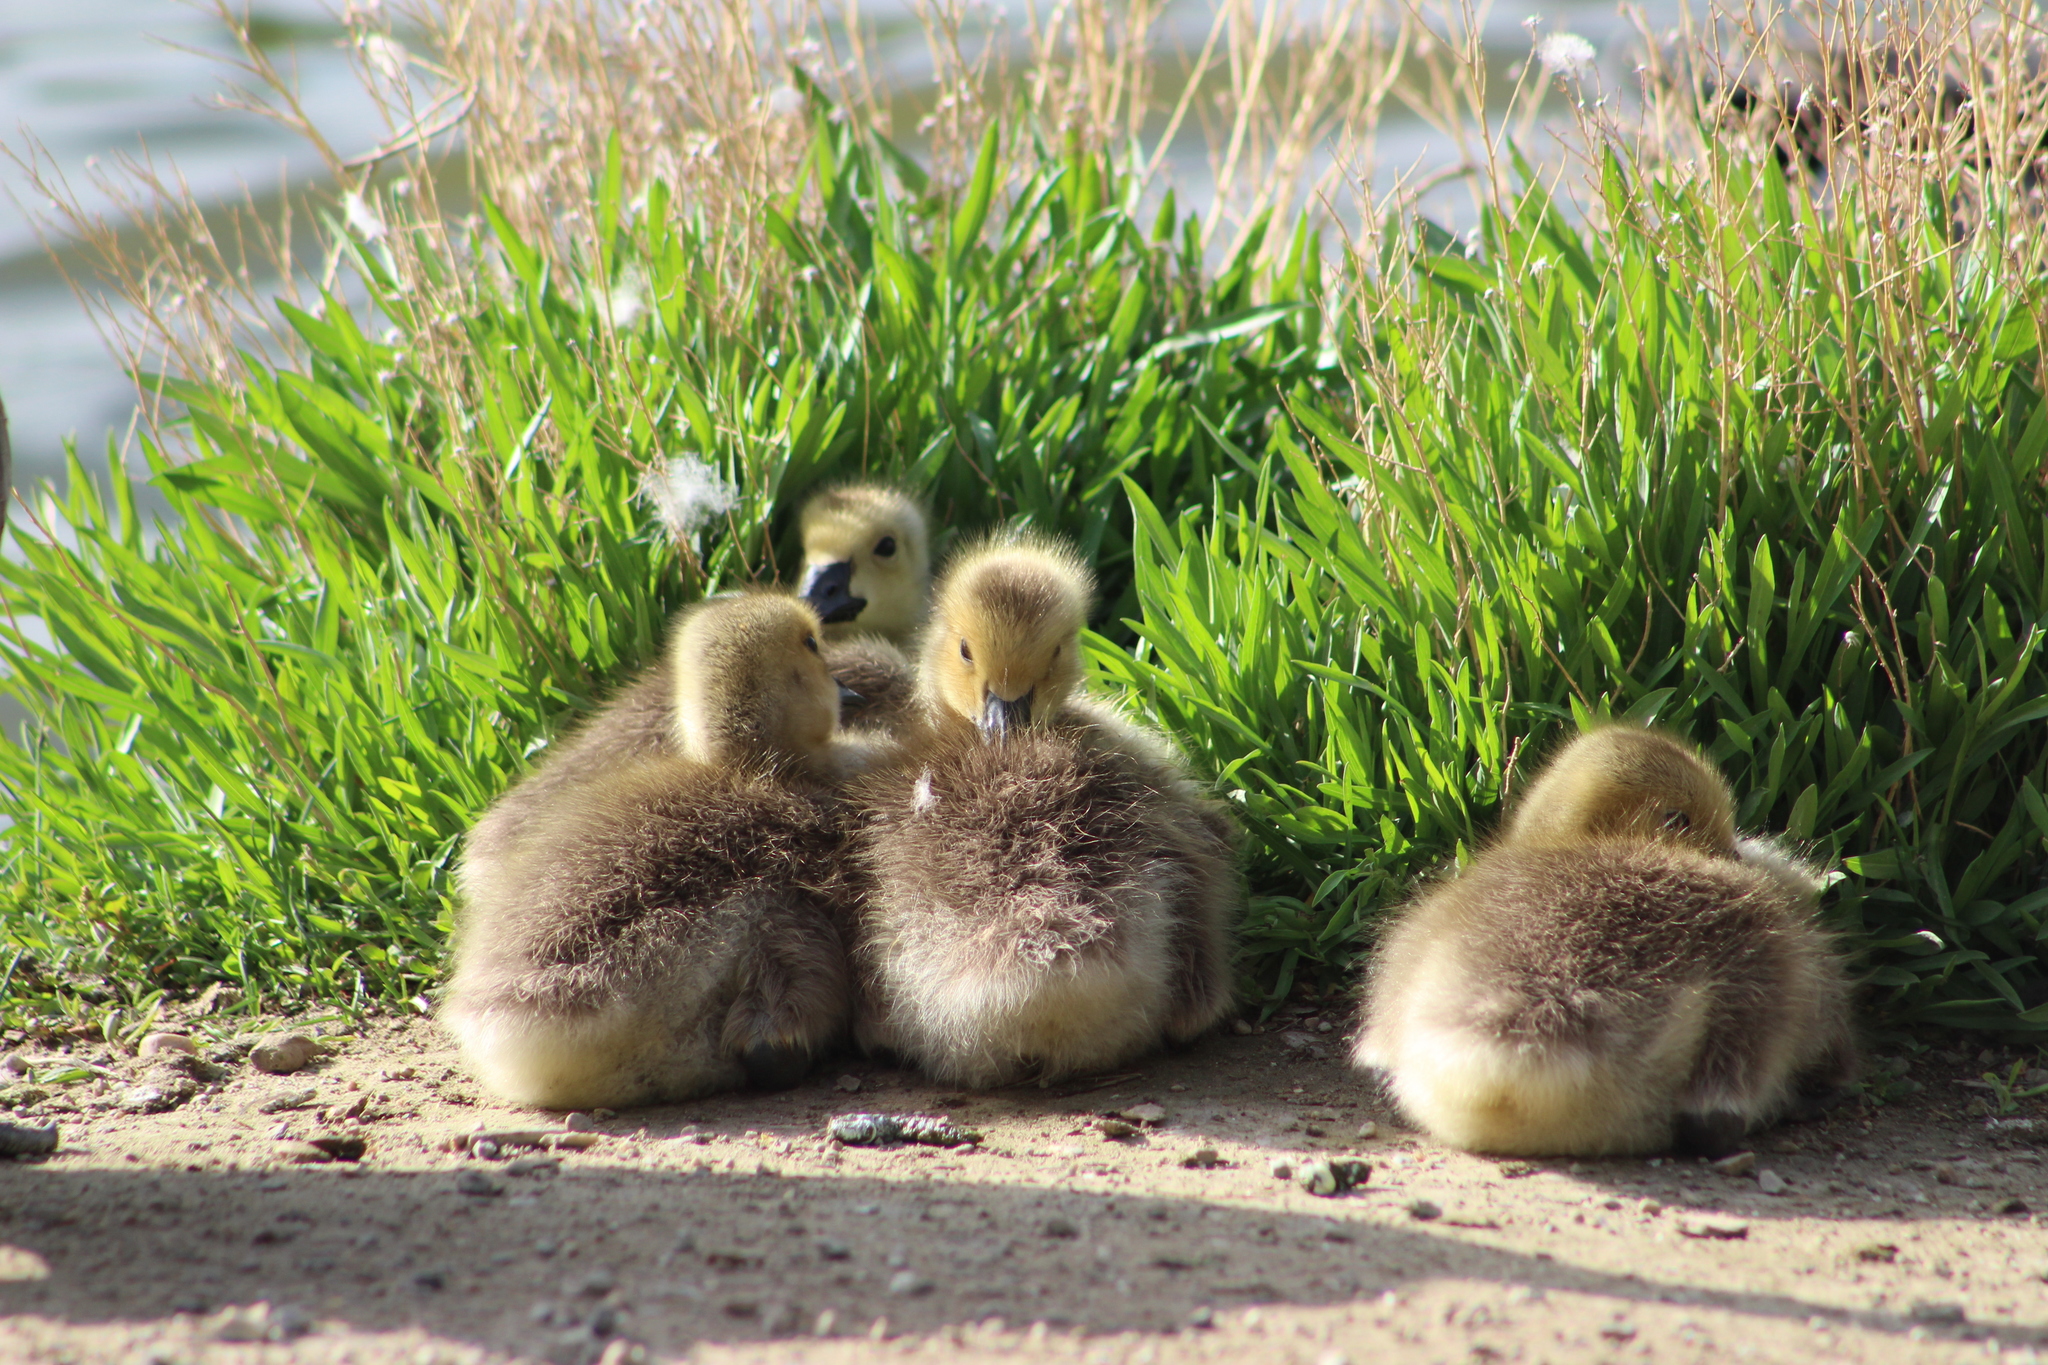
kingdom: Animalia
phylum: Chordata
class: Aves
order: Anseriformes
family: Anatidae
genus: Branta
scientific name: Branta canadensis
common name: Canada goose
